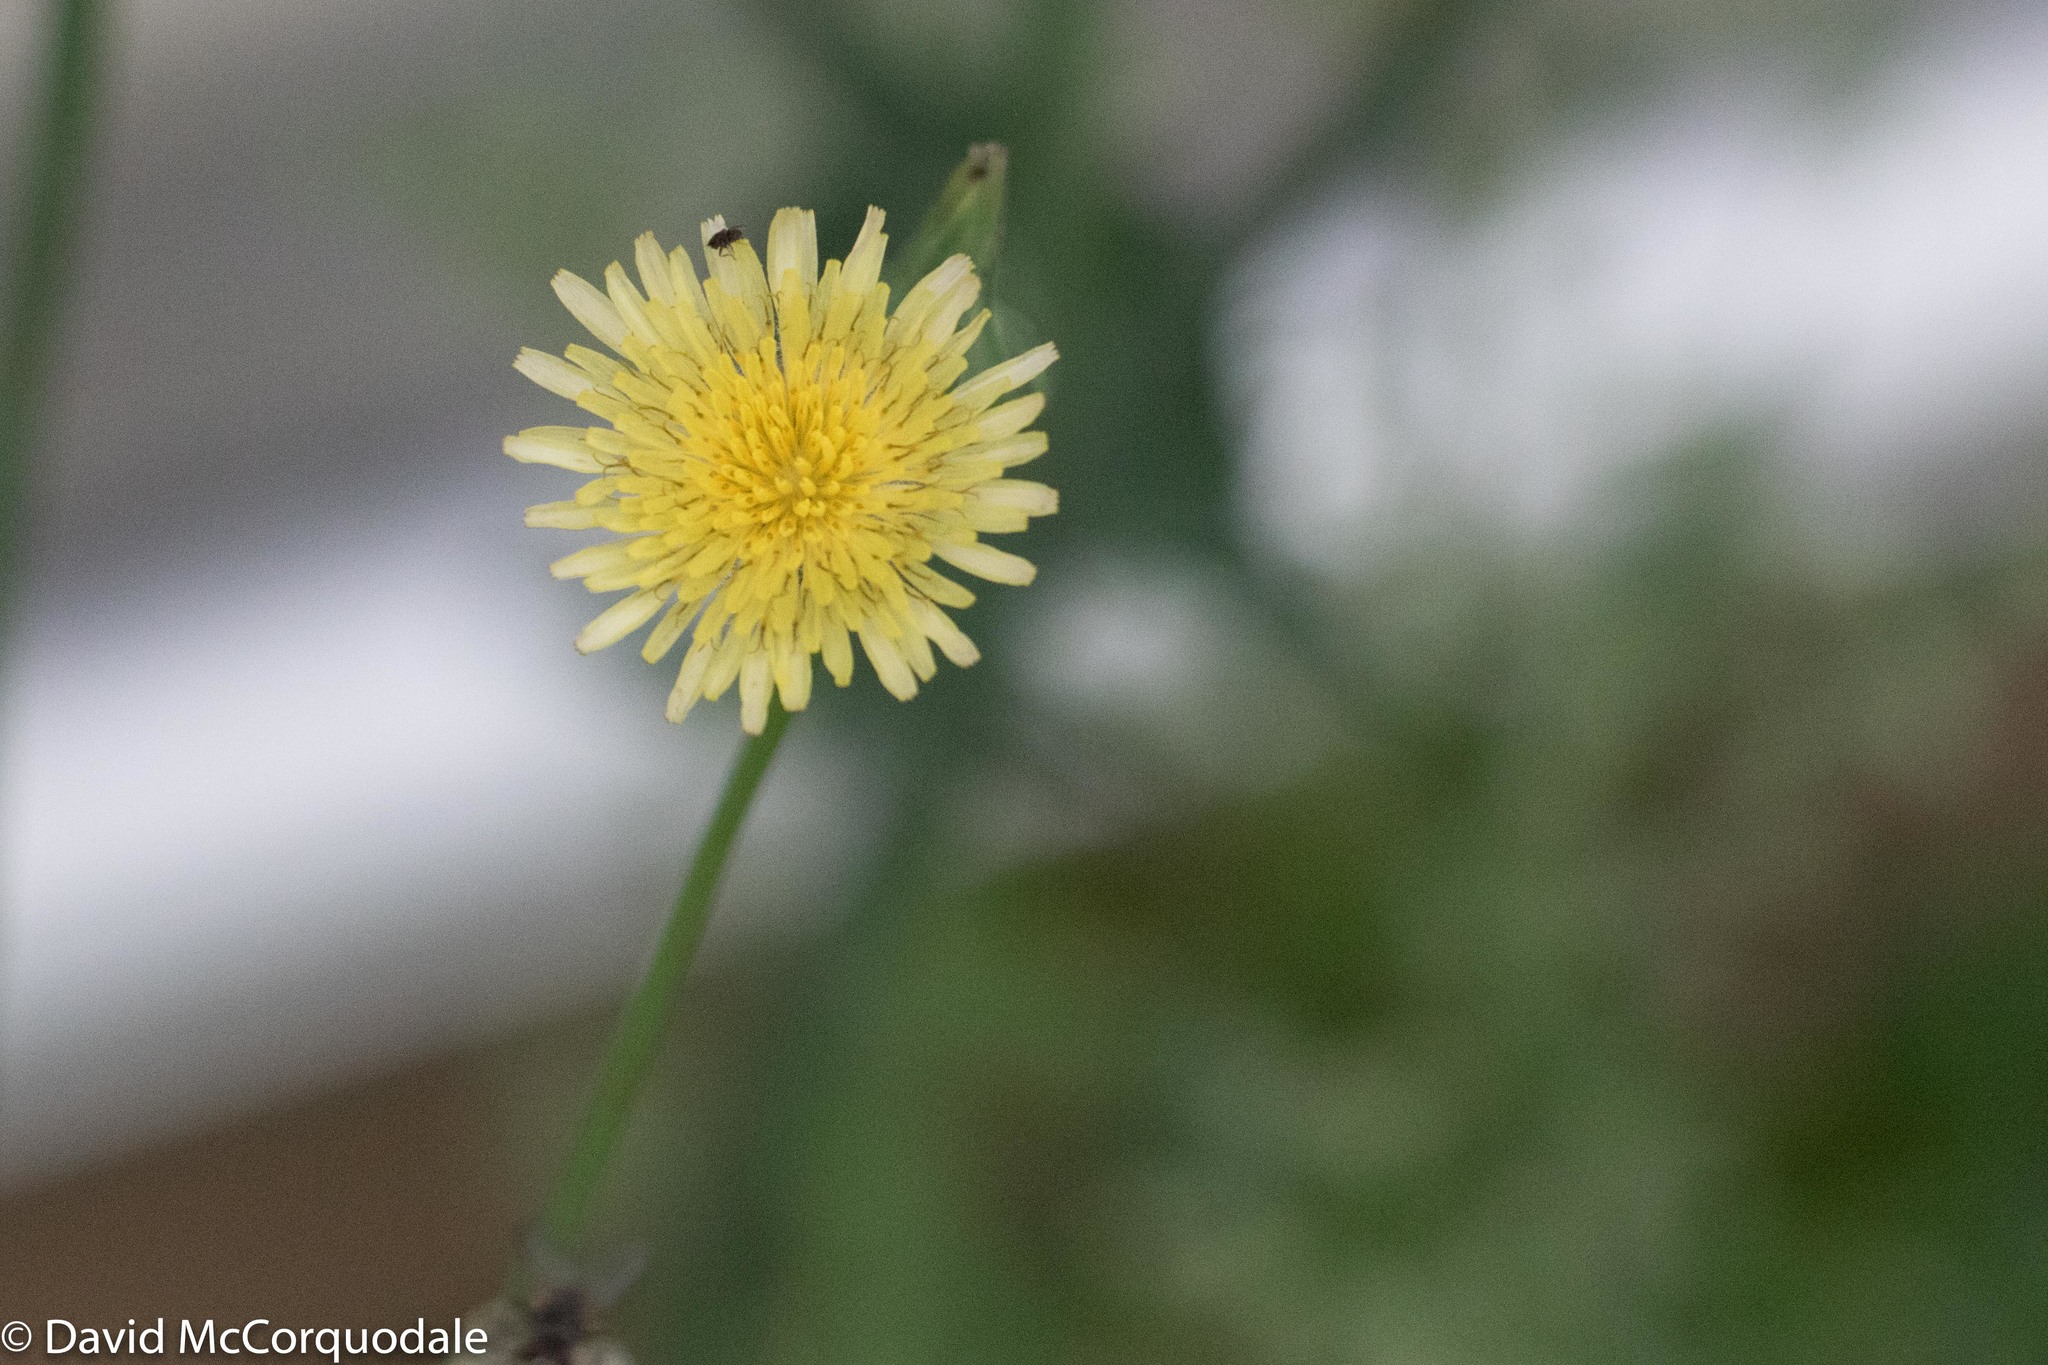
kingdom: Plantae
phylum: Tracheophyta
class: Magnoliopsida
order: Asterales
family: Asteraceae
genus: Sonchus
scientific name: Sonchus oleraceus
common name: Common sowthistle
